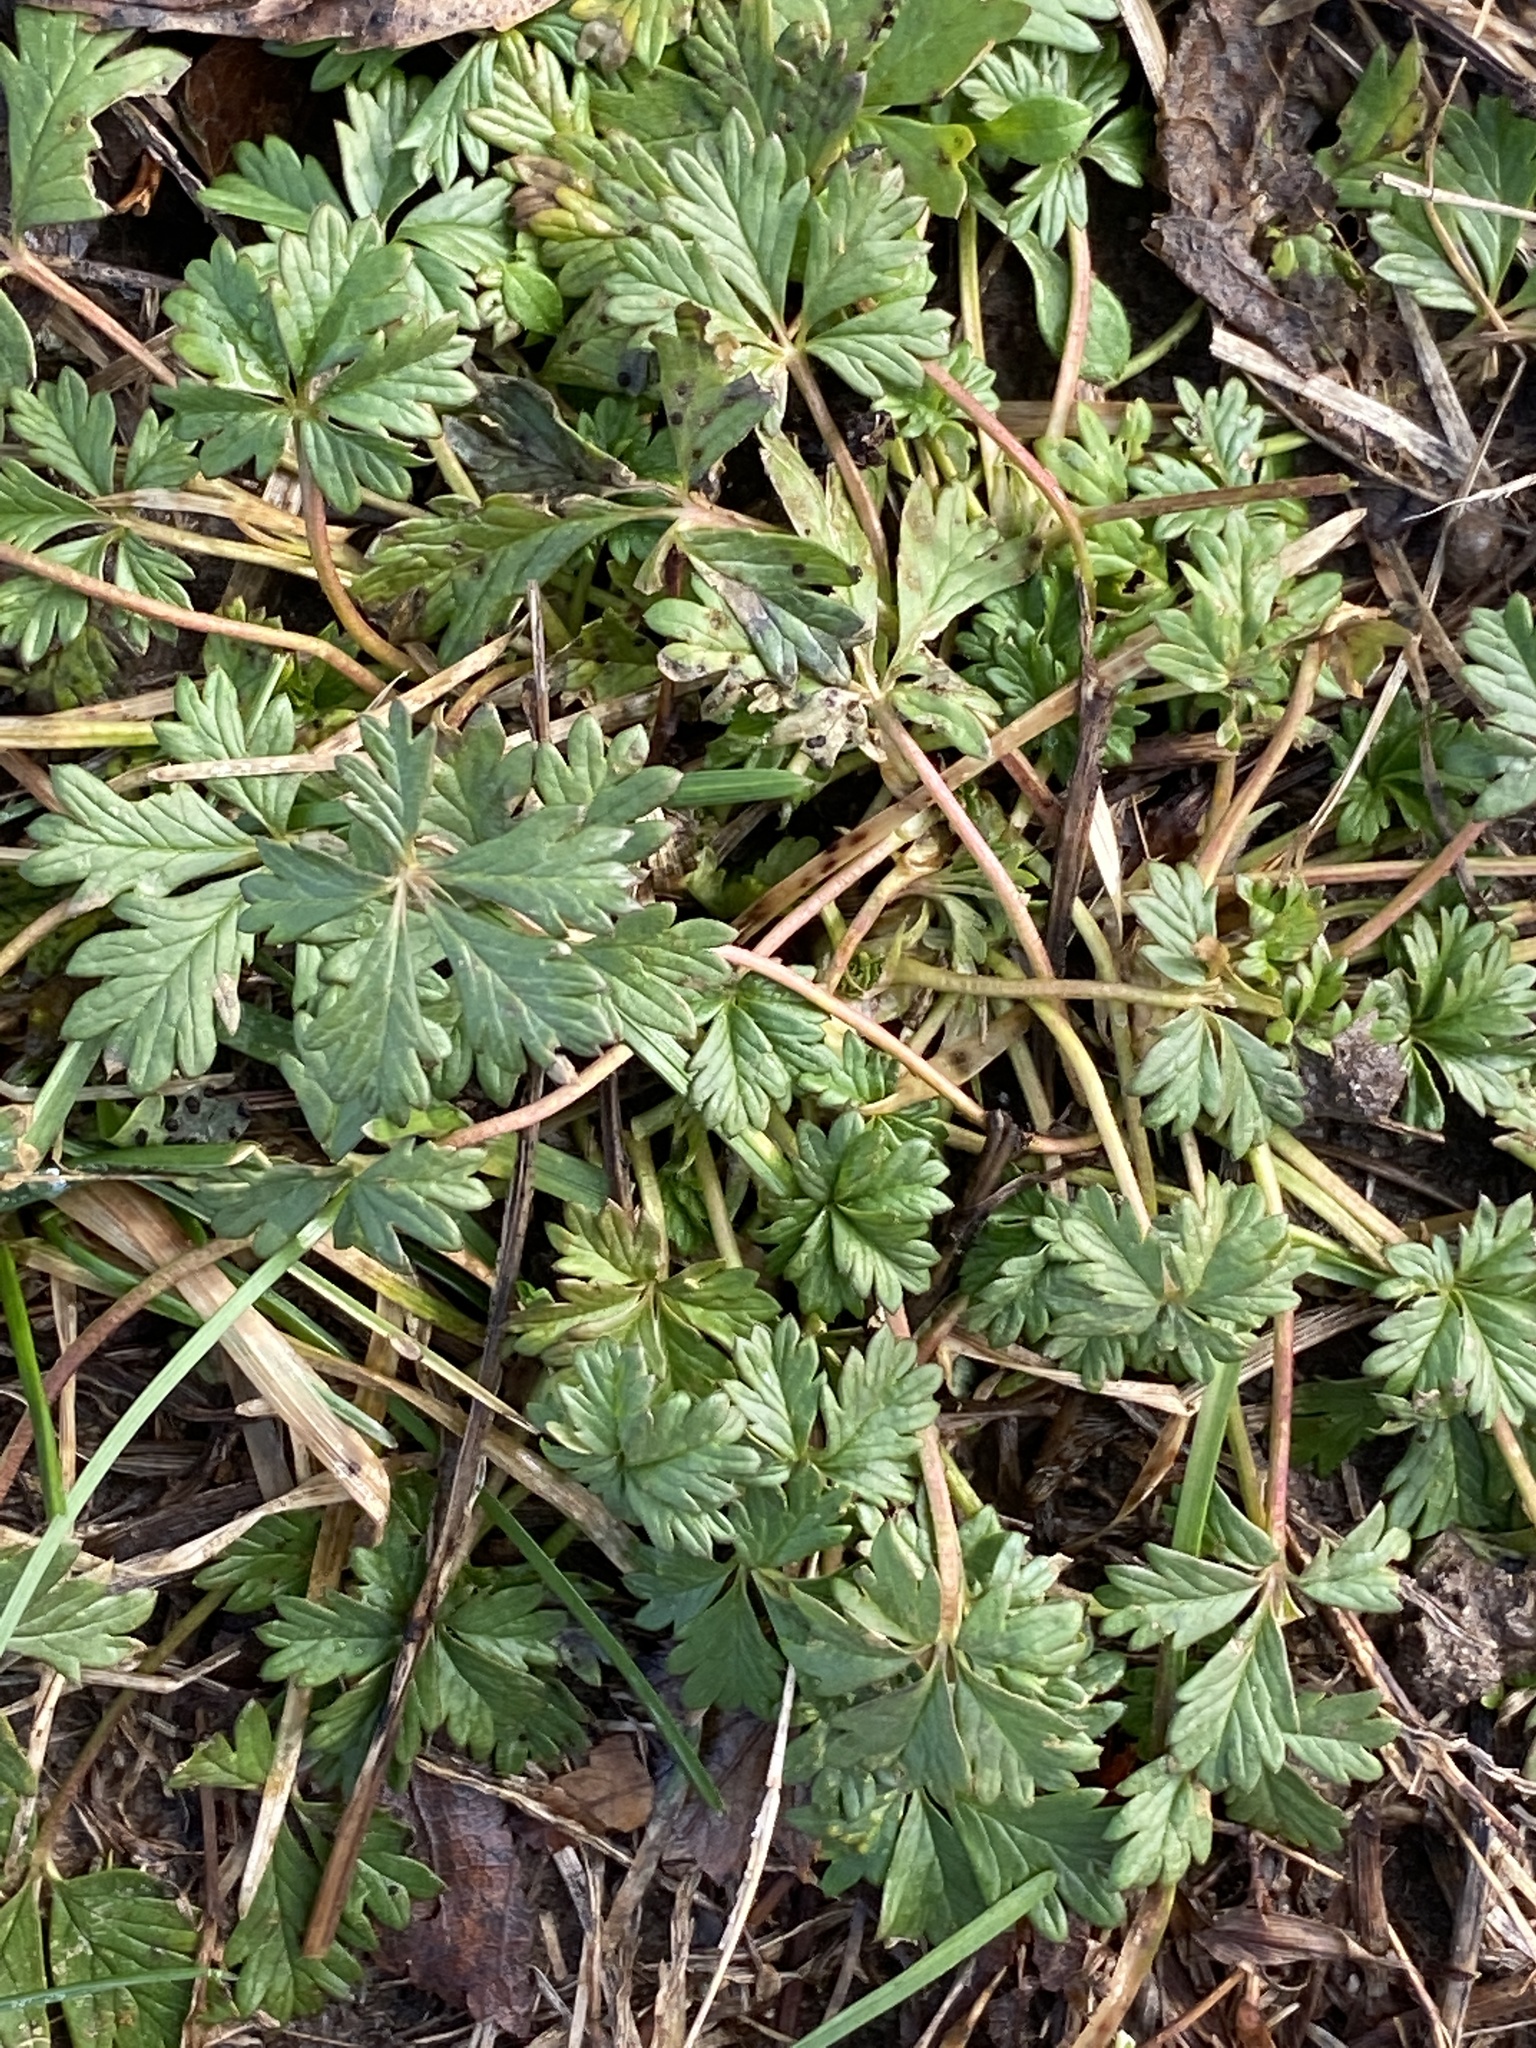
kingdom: Plantae
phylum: Tracheophyta
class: Magnoliopsida
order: Rosales
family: Rosaceae
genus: Potentilla
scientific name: Potentilla argentea
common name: Hoary cinquefoil
